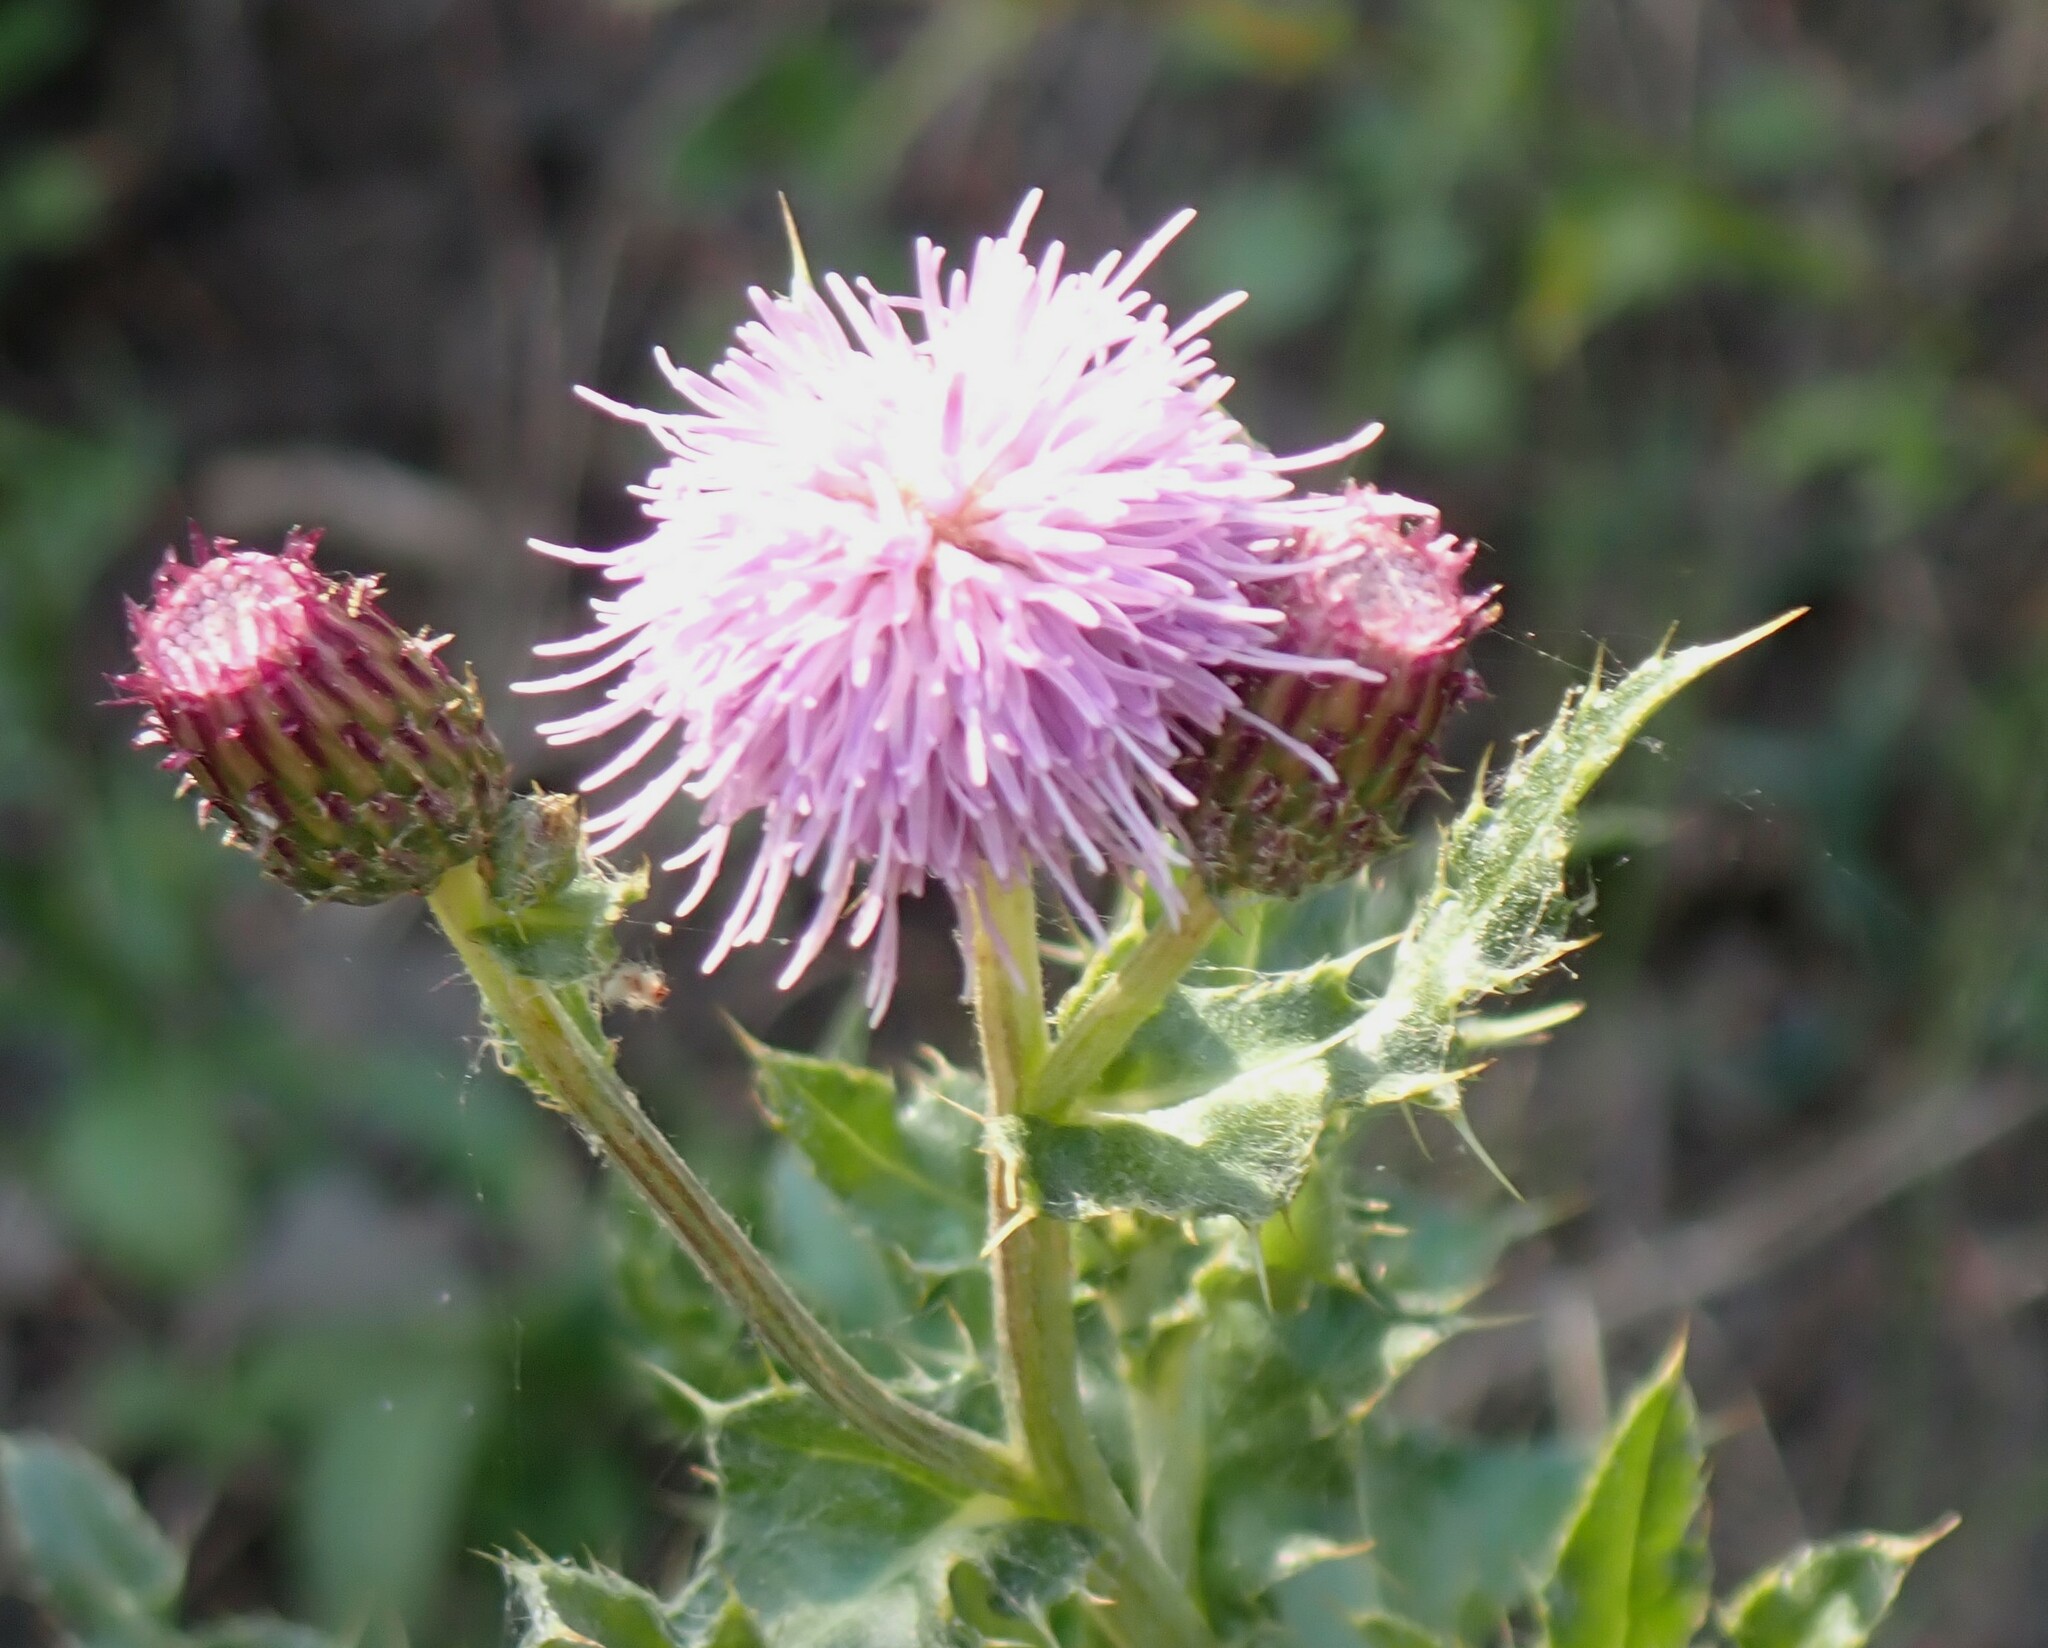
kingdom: Plantae
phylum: Tracheophyta
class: Magnoliopsida
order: Asterales
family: Asteraceae
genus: Cirsium
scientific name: Cirsium arvense
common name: Creeping thistle
